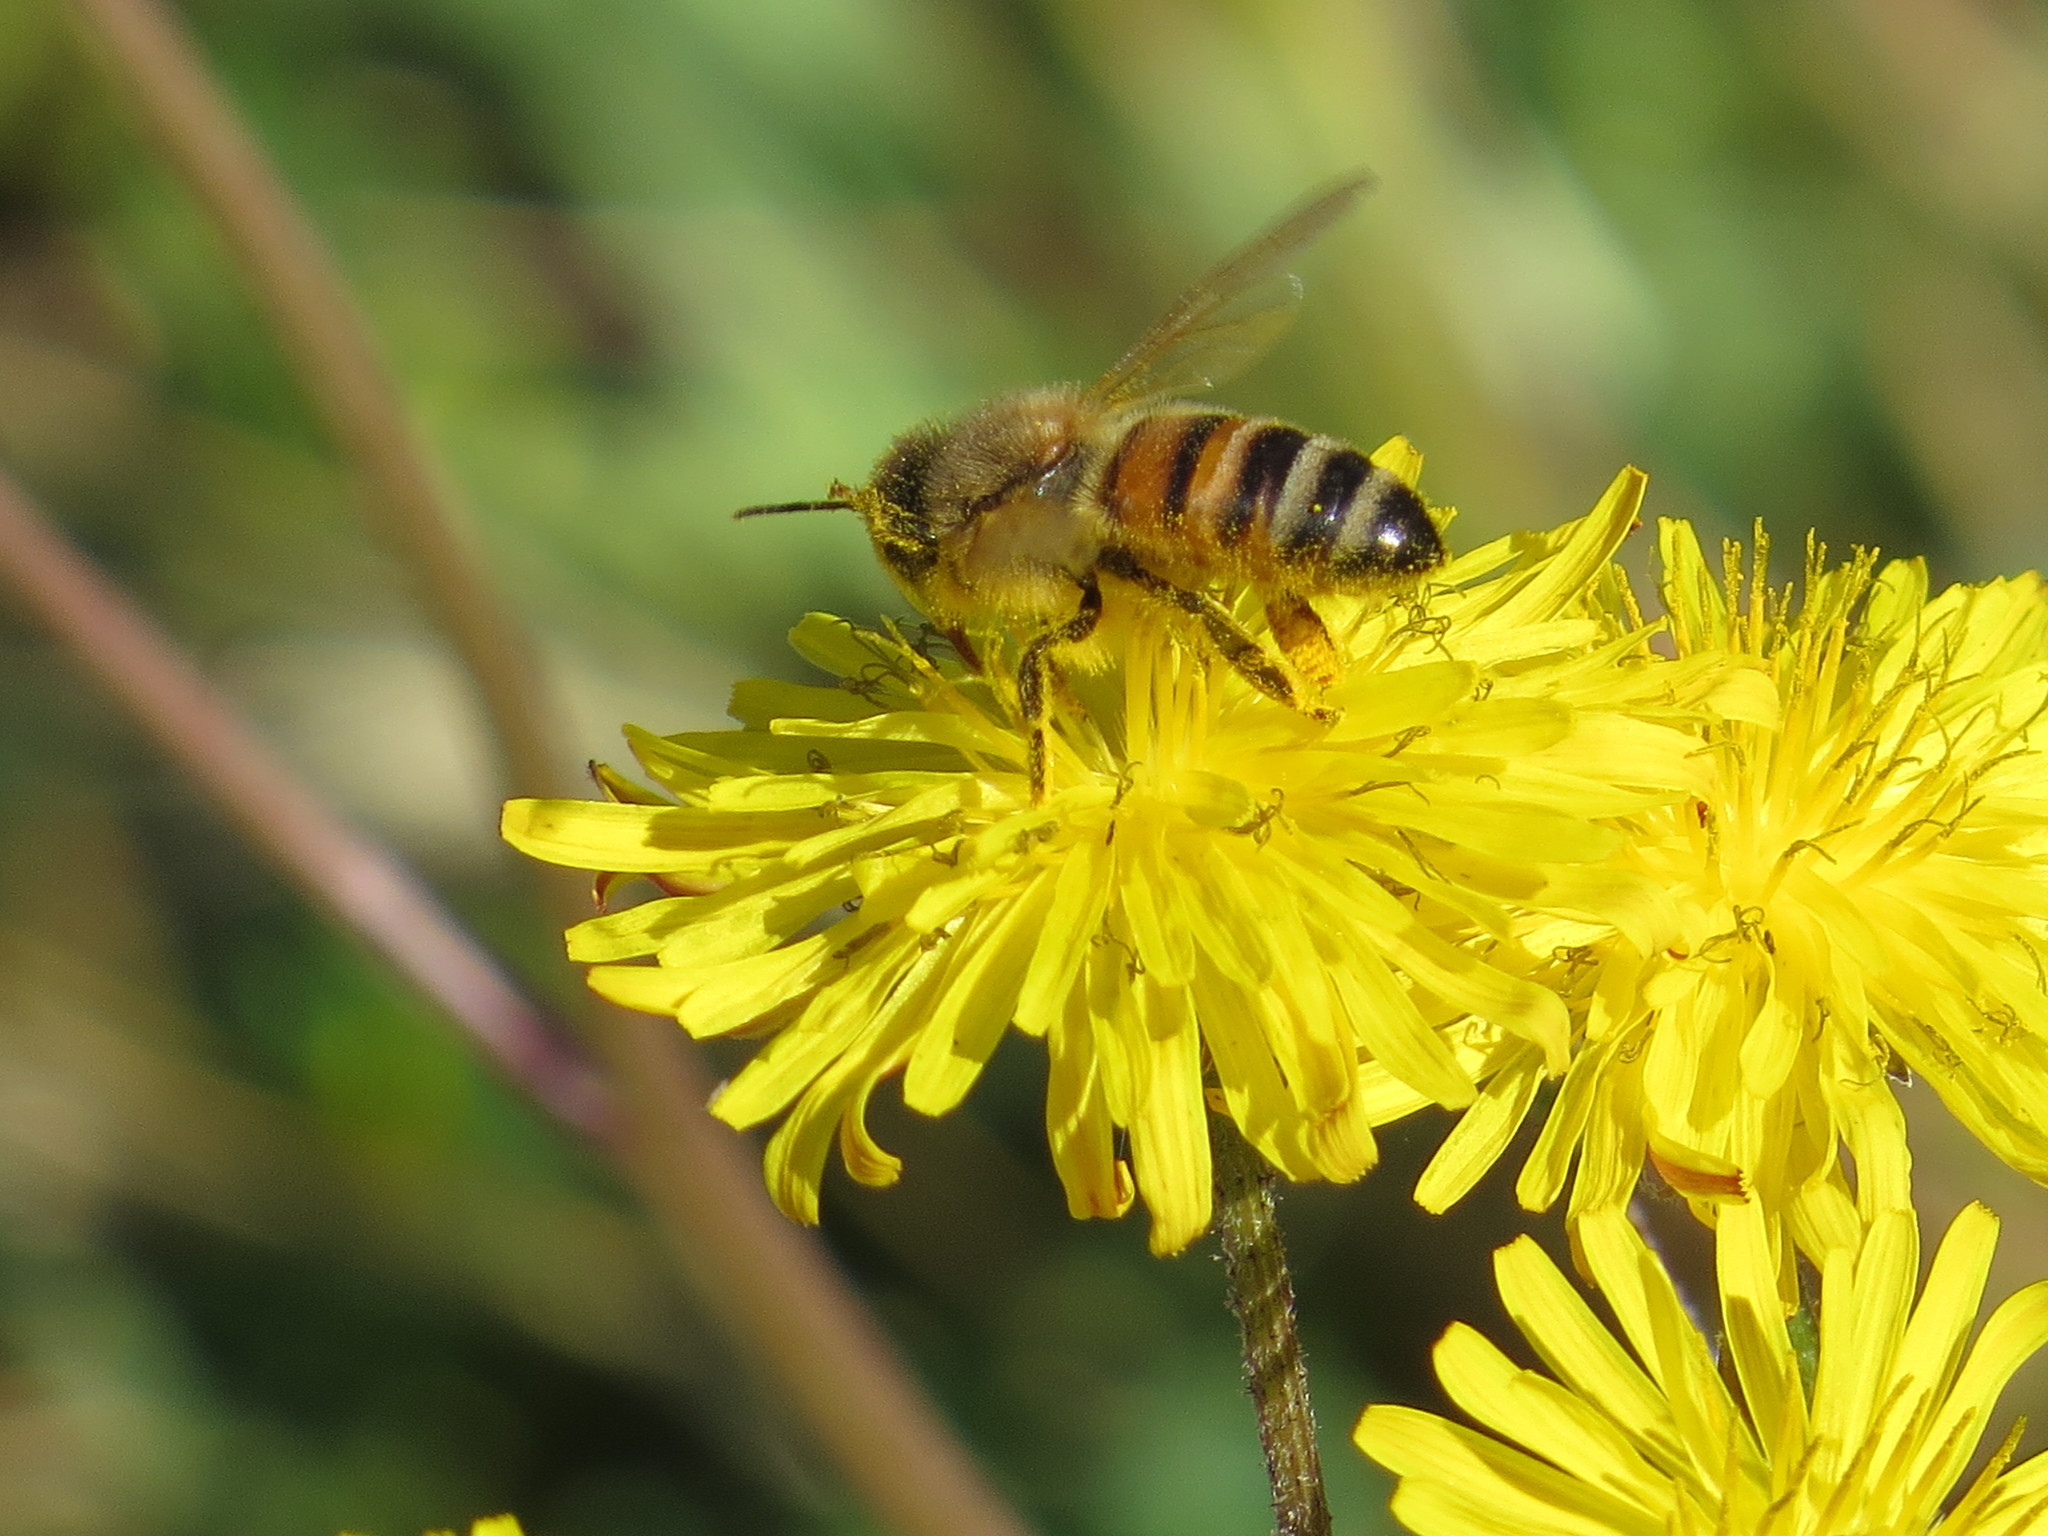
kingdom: Animalia
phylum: Arthropoda
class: Insecta
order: Hymenoptera
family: Apidae
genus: Apis
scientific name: Apis mellifera
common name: Honey bee
